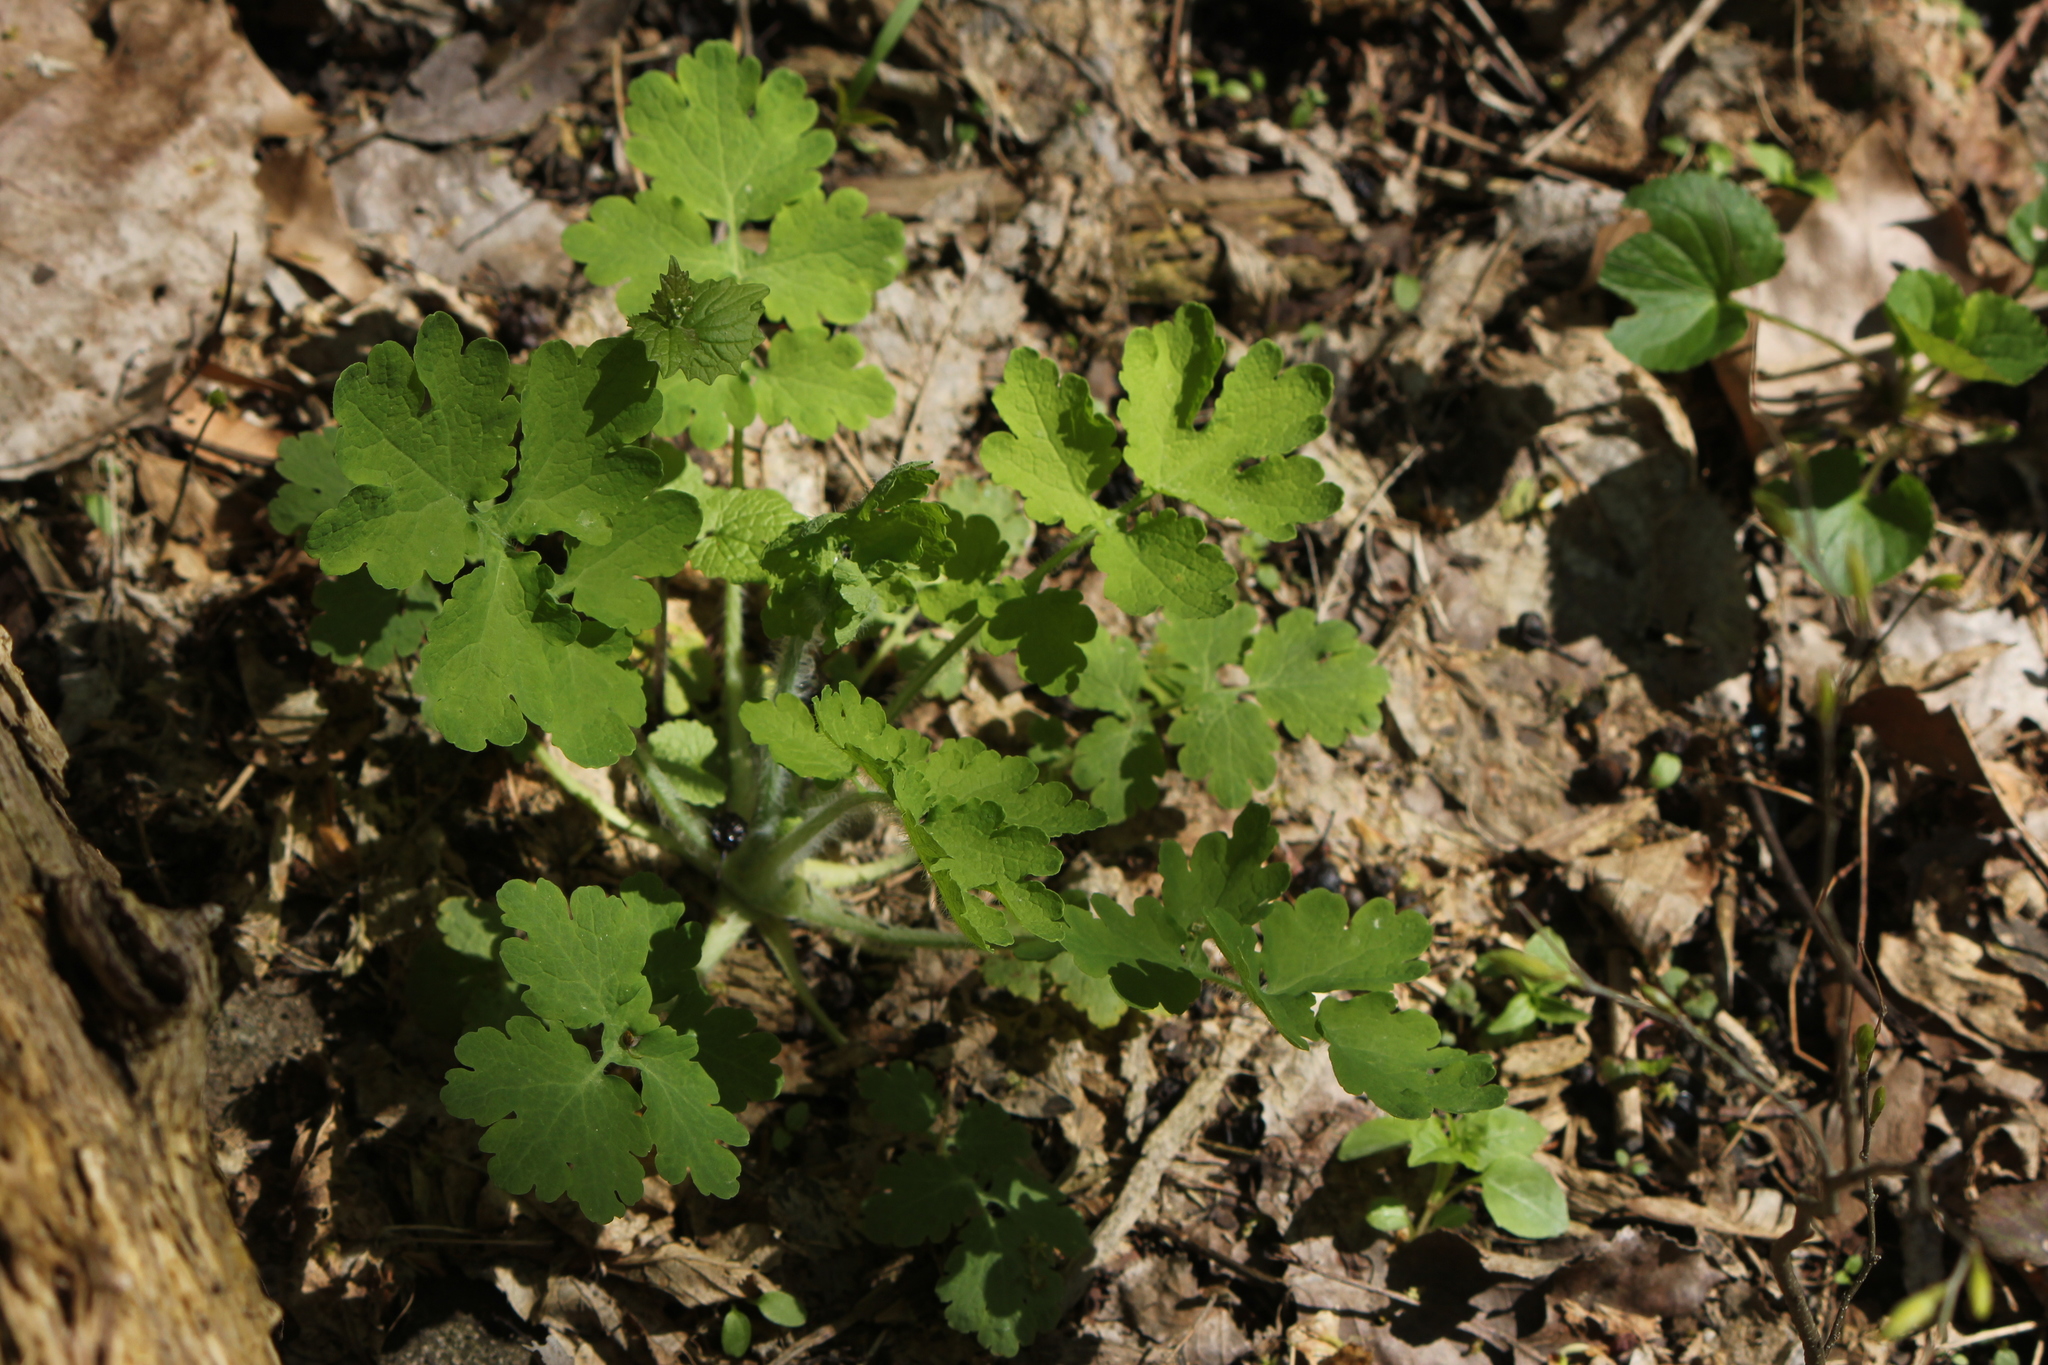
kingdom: Plantae
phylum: Tracheophyta
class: Magnoliopsida
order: Ranunculales
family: Papaveraceae
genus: Chelidonium
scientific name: Chelidonium majus
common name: Greater celandine
